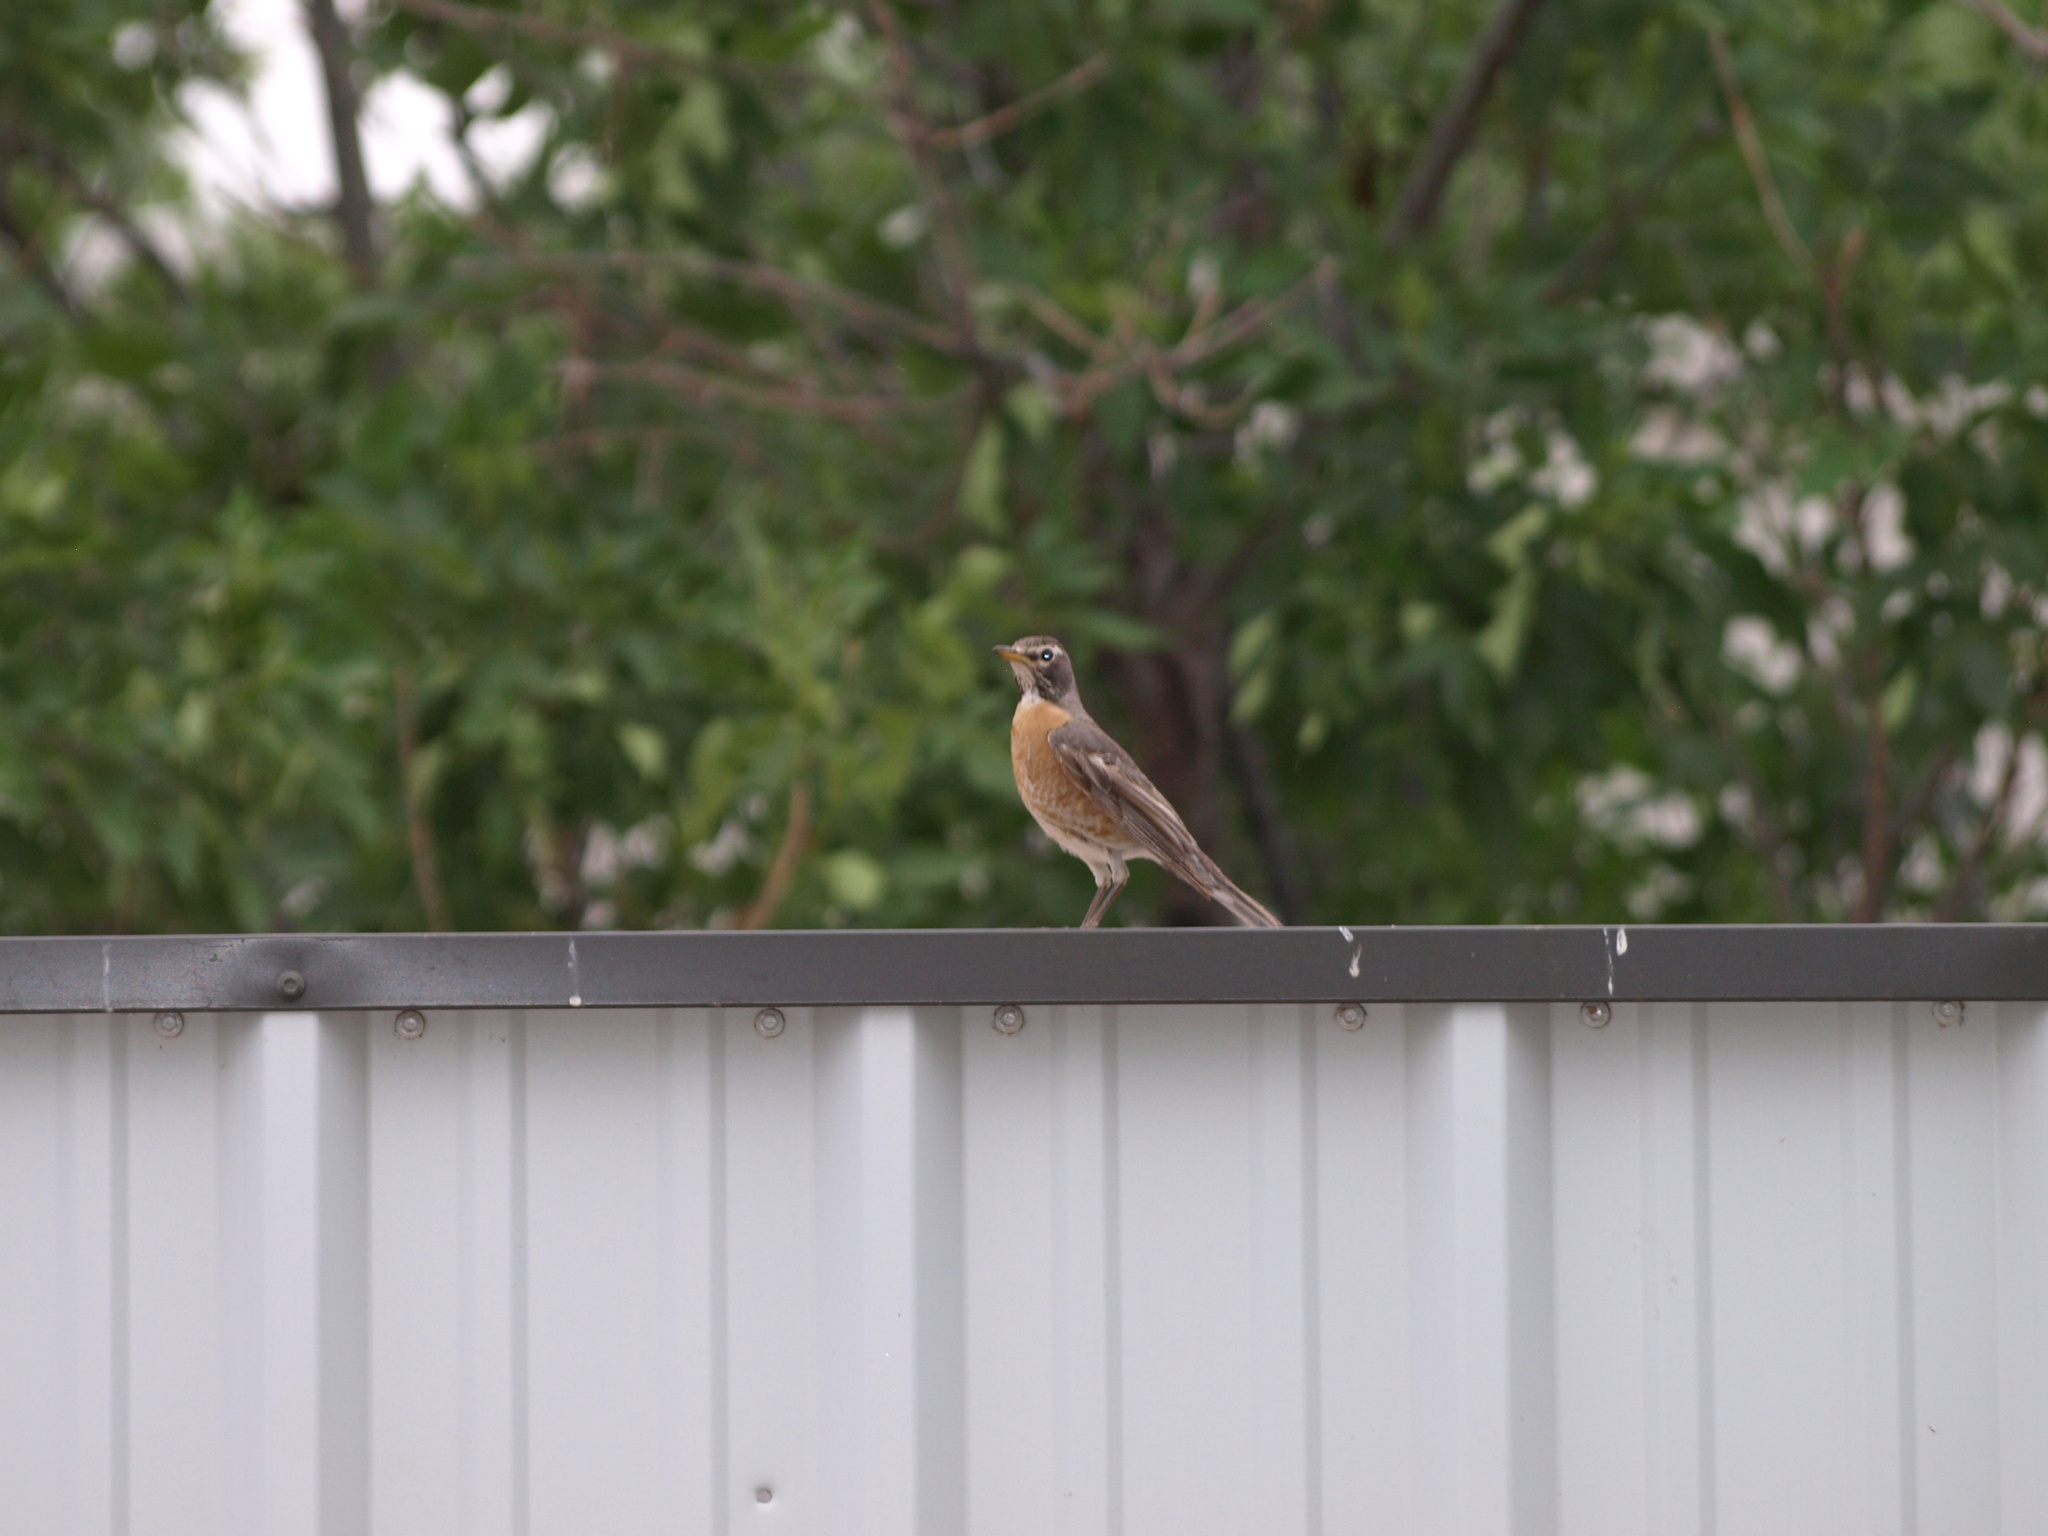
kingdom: Animalia
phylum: Chordata
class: Aves
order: Passeriformes
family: Turdidae
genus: Turdus
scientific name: Turdus migratorius
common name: American robin
